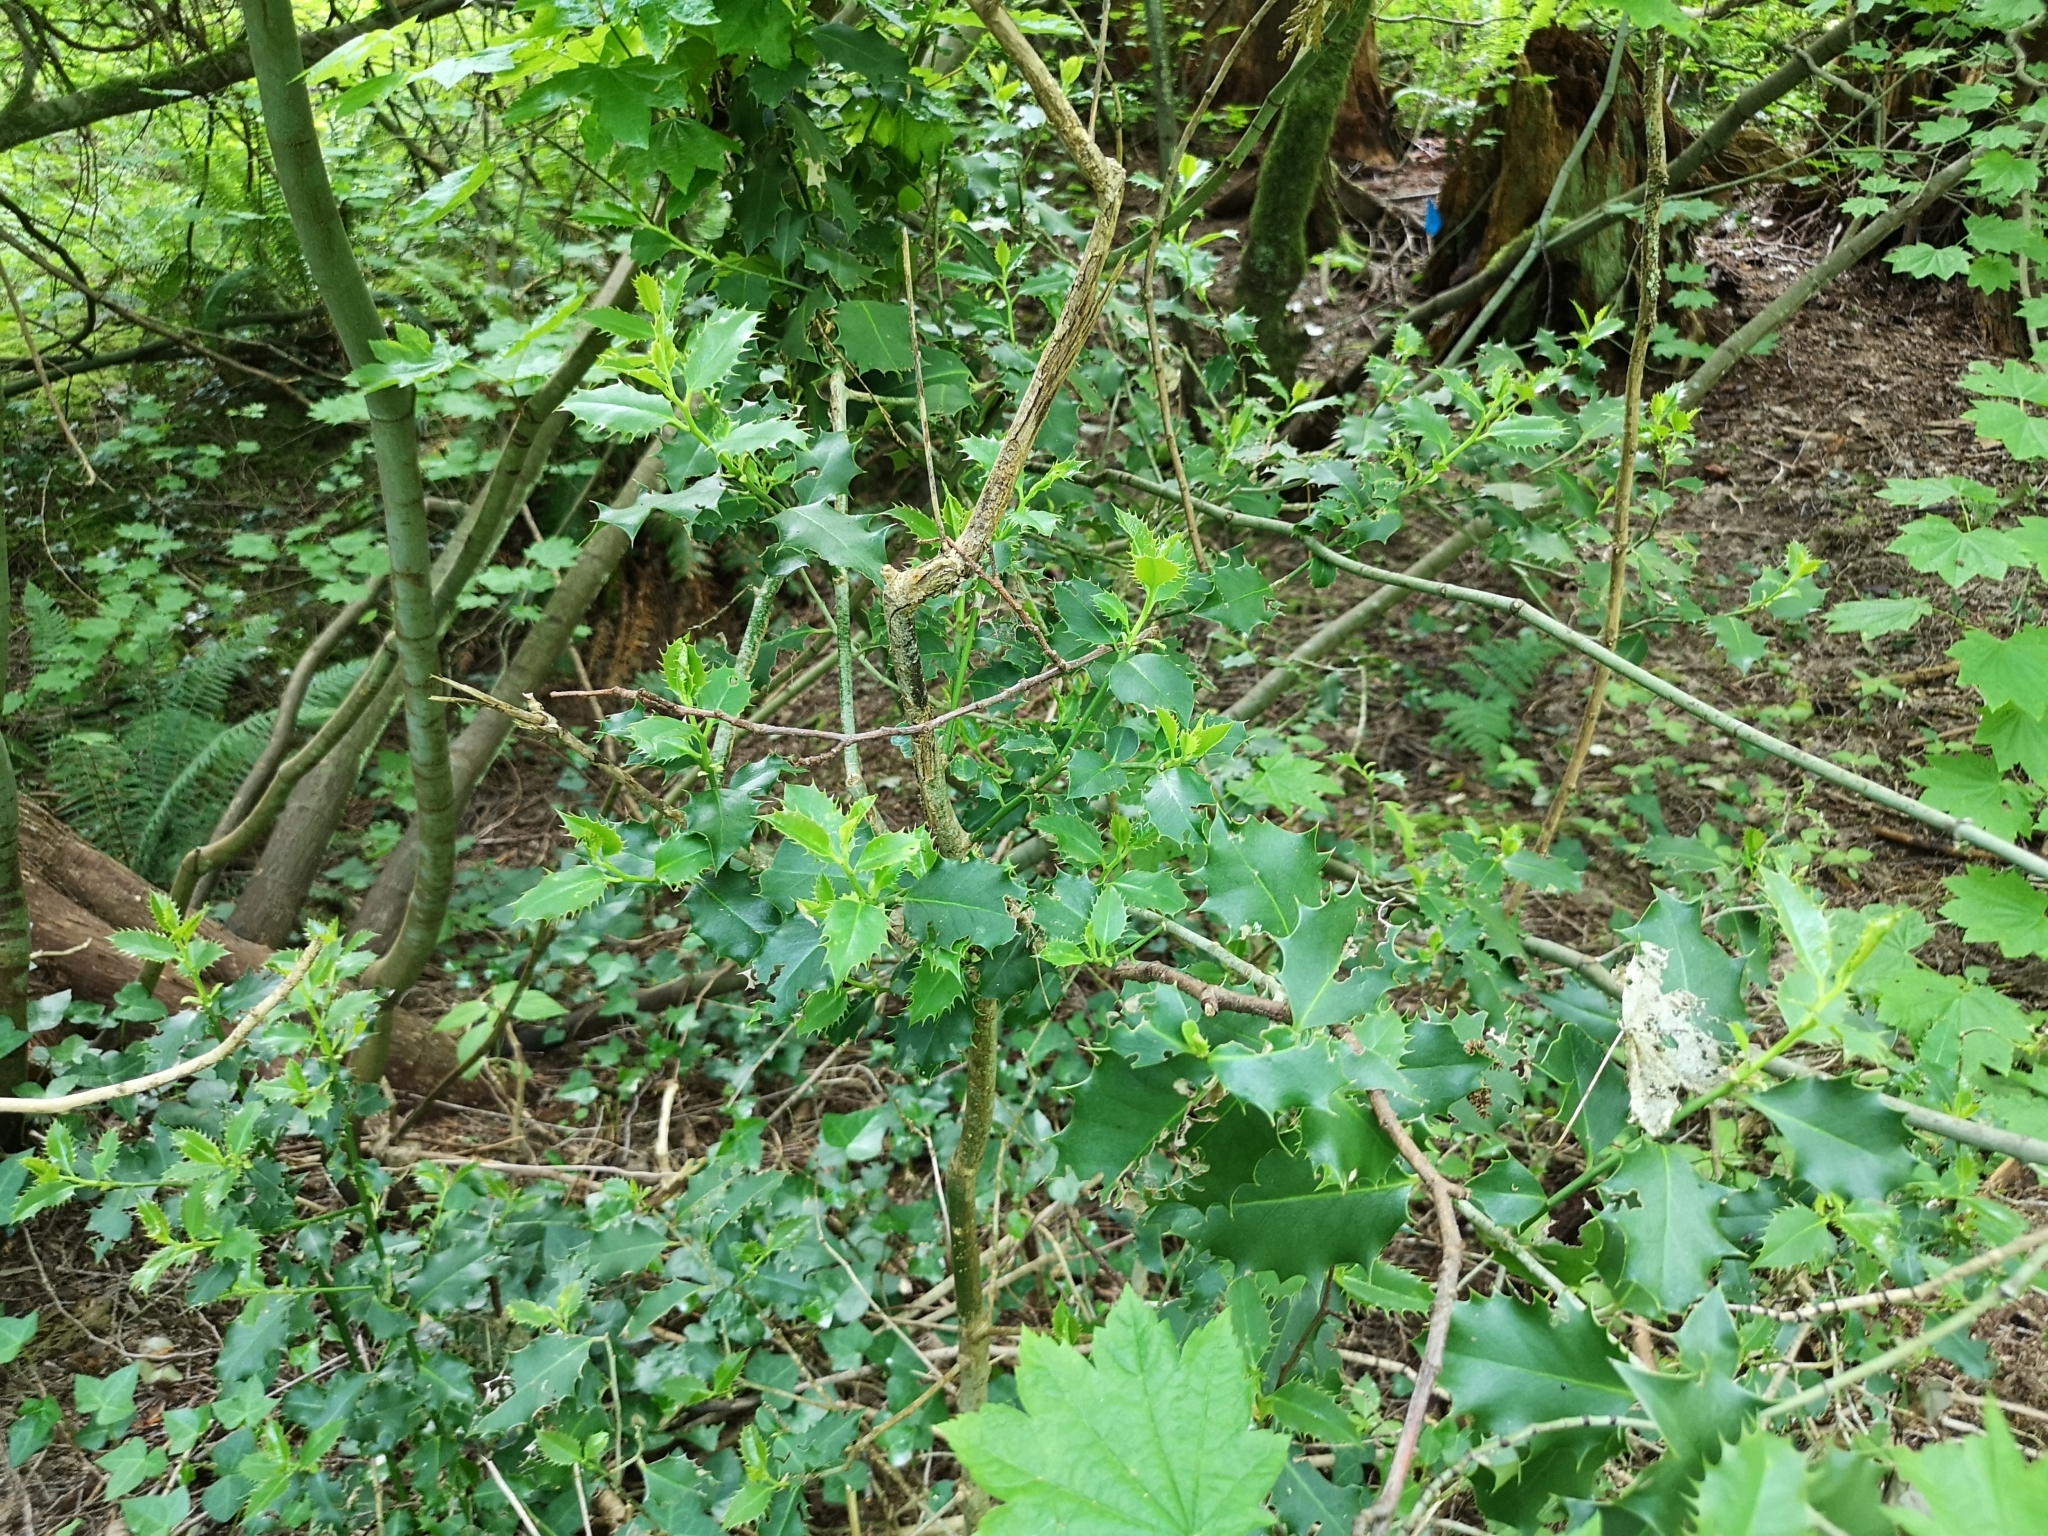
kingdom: Plantae
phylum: Tracheophyta
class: Magnoliopsida
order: Aquifoliales
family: Aquifoliaceae
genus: Ilex
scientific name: Ilex aquifolium
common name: English holly
